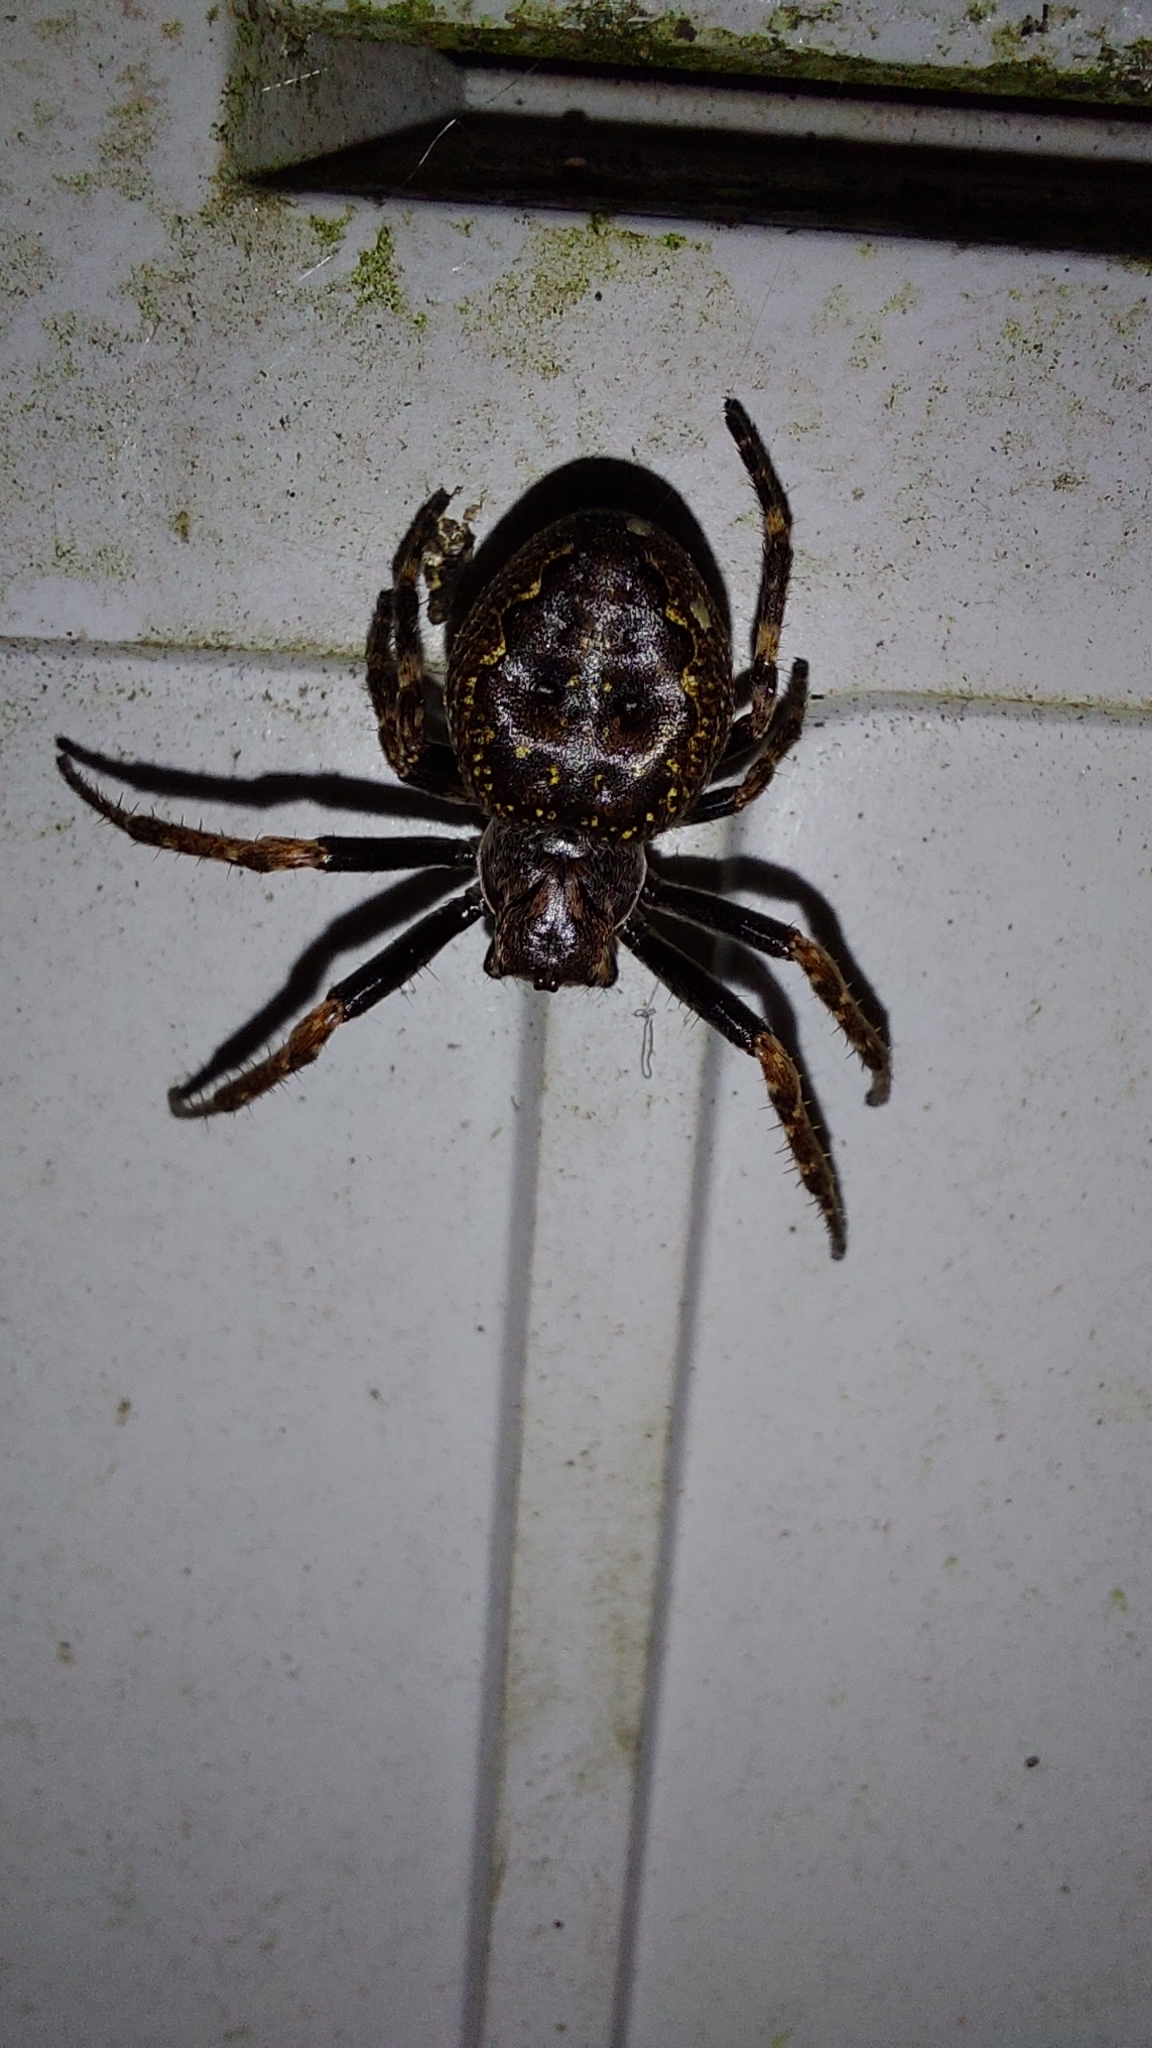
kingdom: Animalia
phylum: Arthropoda
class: Arachnida
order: Araneae
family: Araneidae
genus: Nuctenea
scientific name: Nuctenea umbratica
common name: Toad spider
